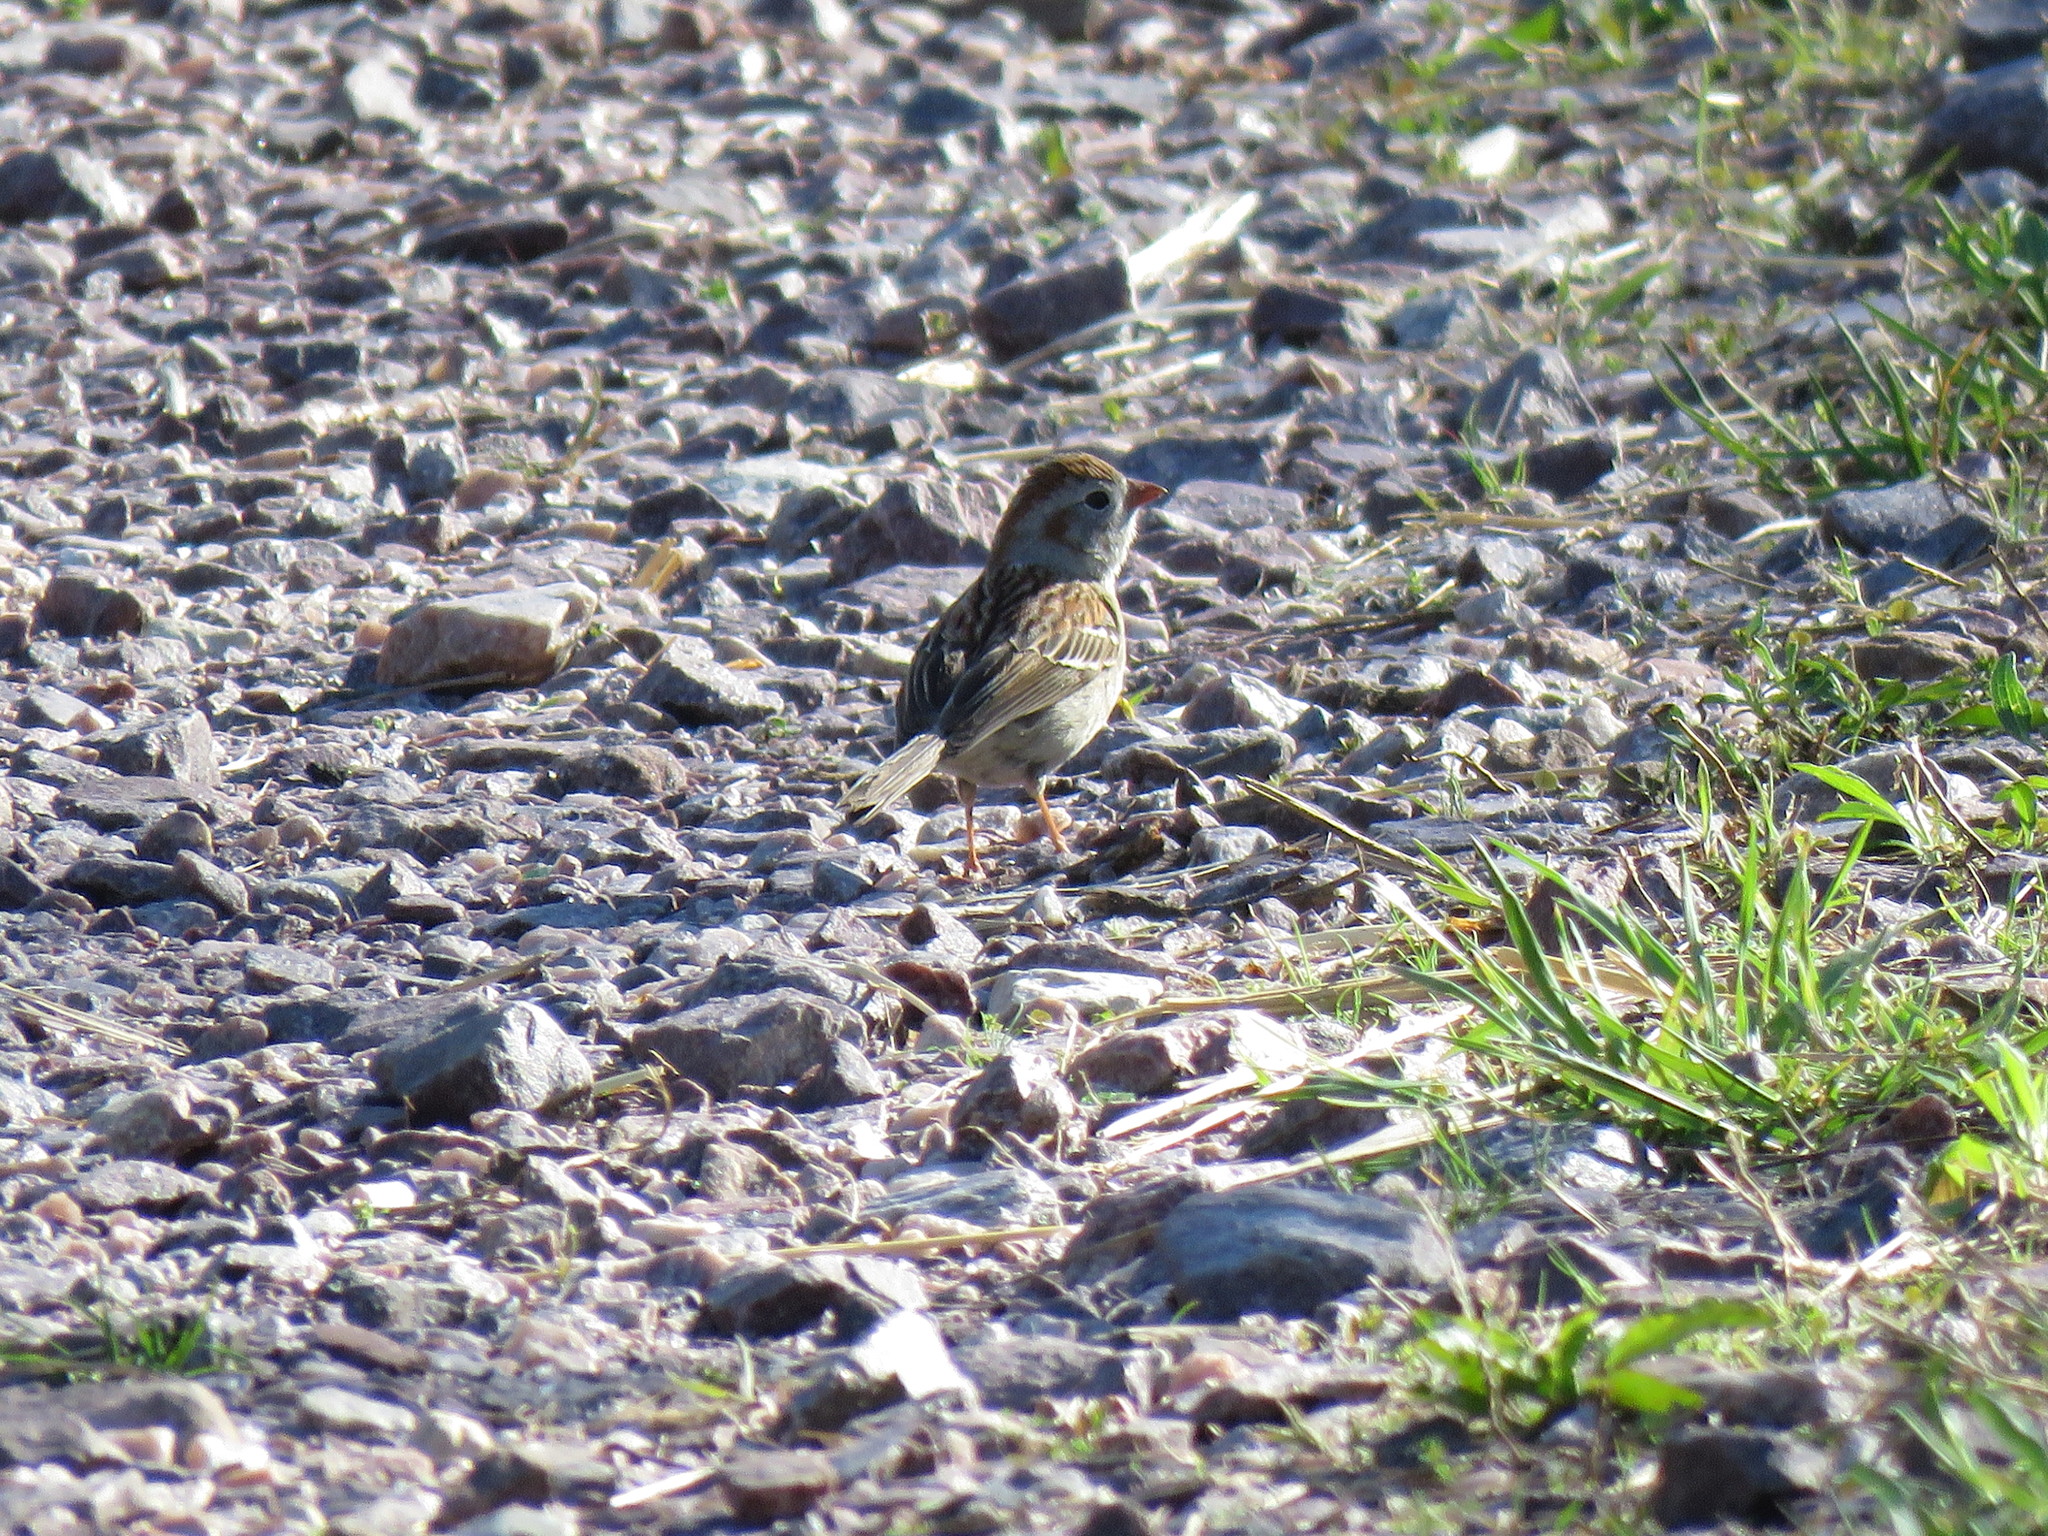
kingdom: Animalia
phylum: Chordata
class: Aves
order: Passeriformes
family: Passerellidae
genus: Spizella
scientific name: Spizella pusilla
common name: Field sparrow
